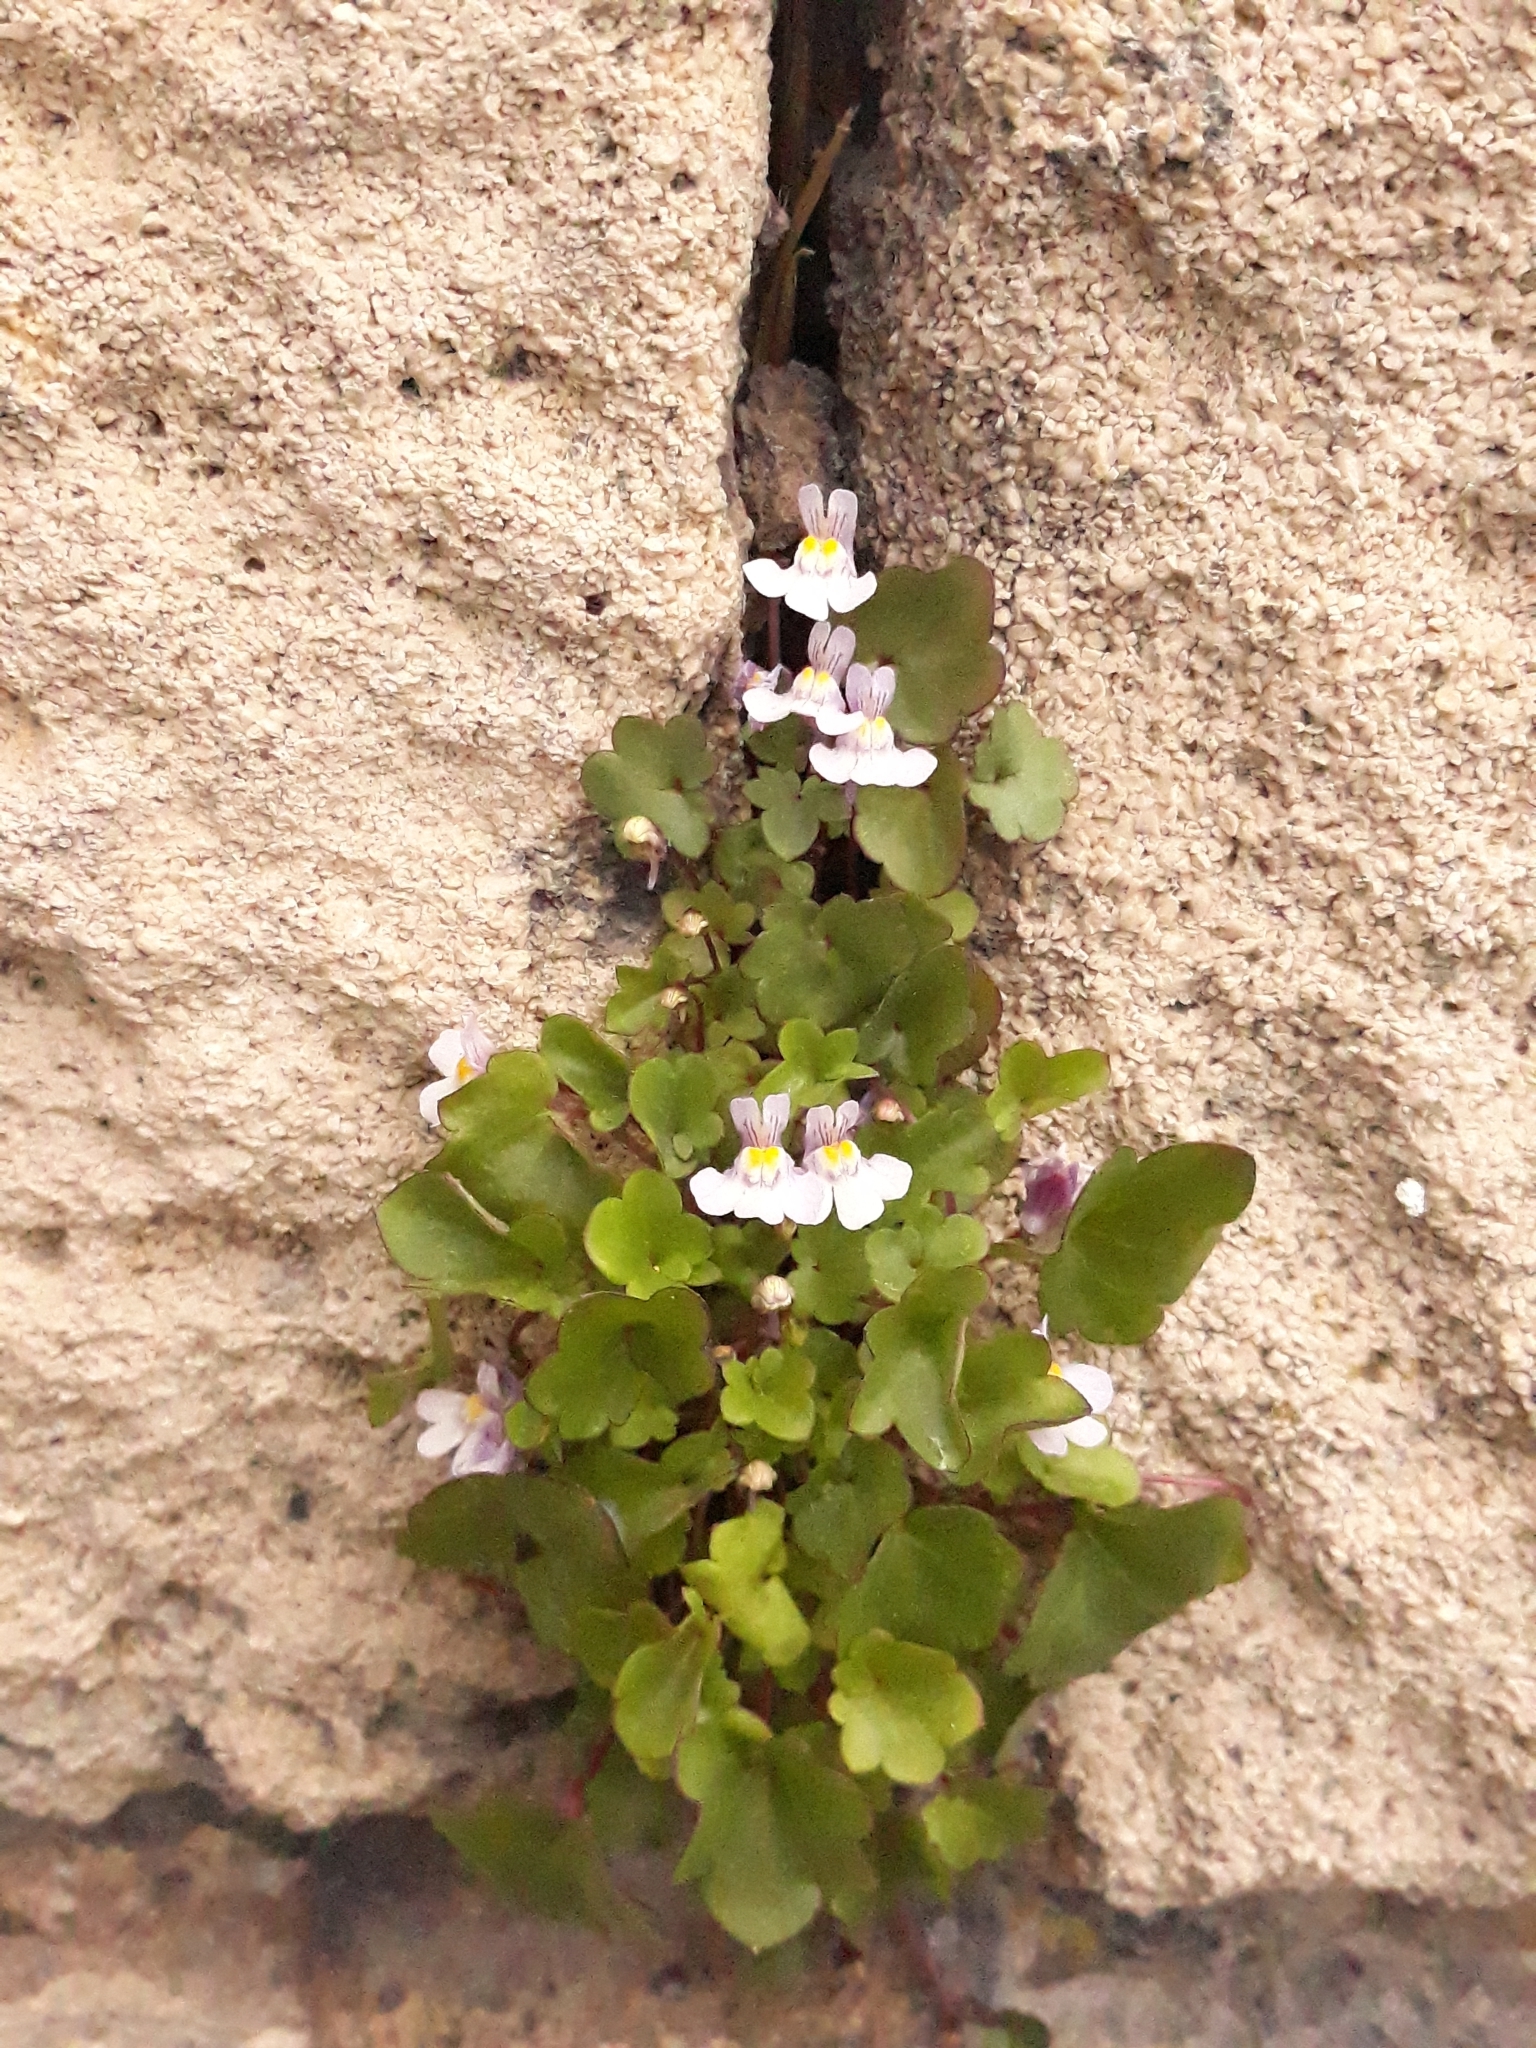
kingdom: Plantae
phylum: Tracheophyta
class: Magnoliopsida
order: Lamiales
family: Plantaginaceae
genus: Cymbalaria
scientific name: Cymbalaria muralis
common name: Ivy-leaved toadflax
